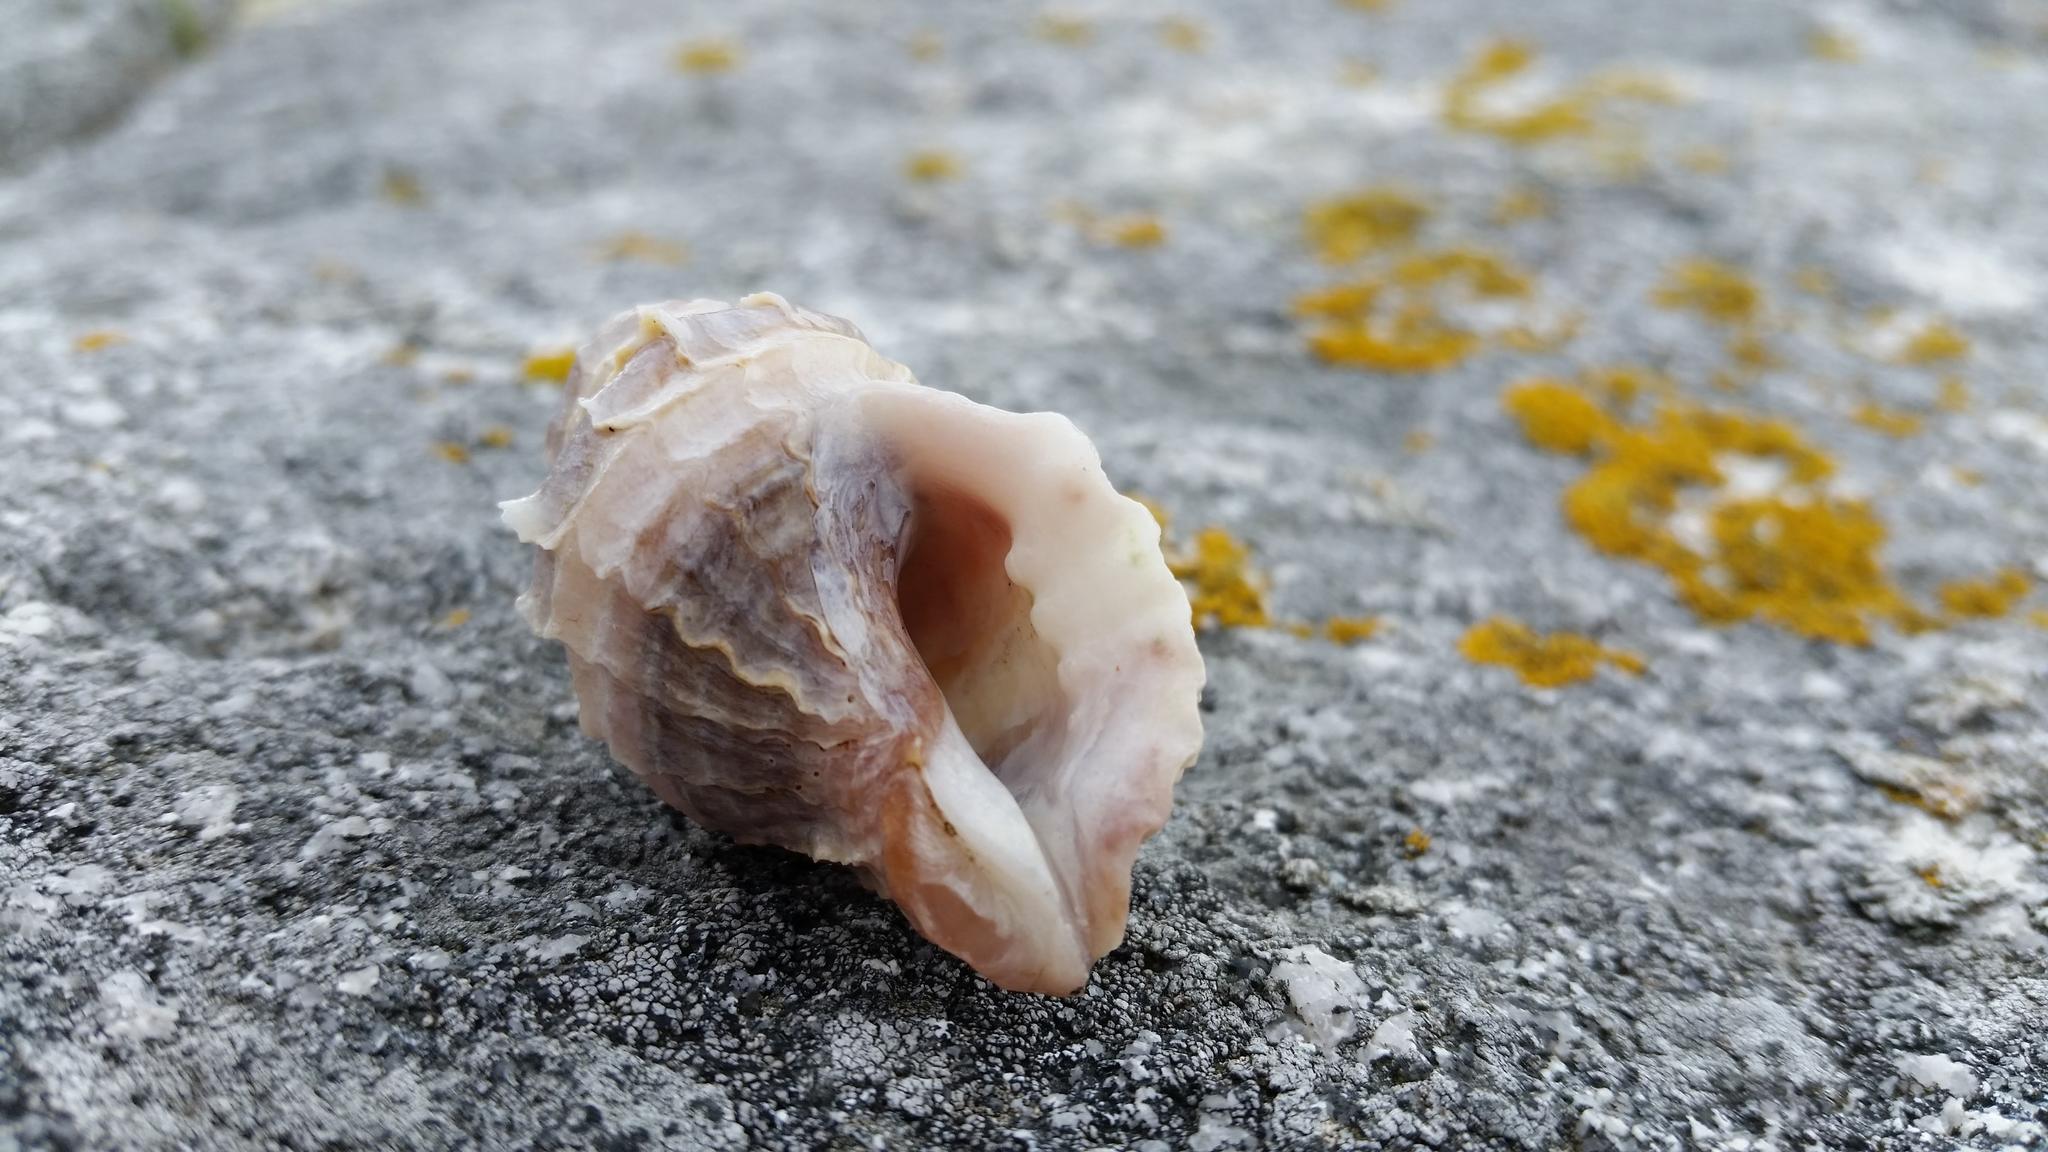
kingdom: Animalia
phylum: Mollusca
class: Gastropoda
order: Neogastropoda
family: Muricidae
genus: Nucella
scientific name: Nucella lamellosa
